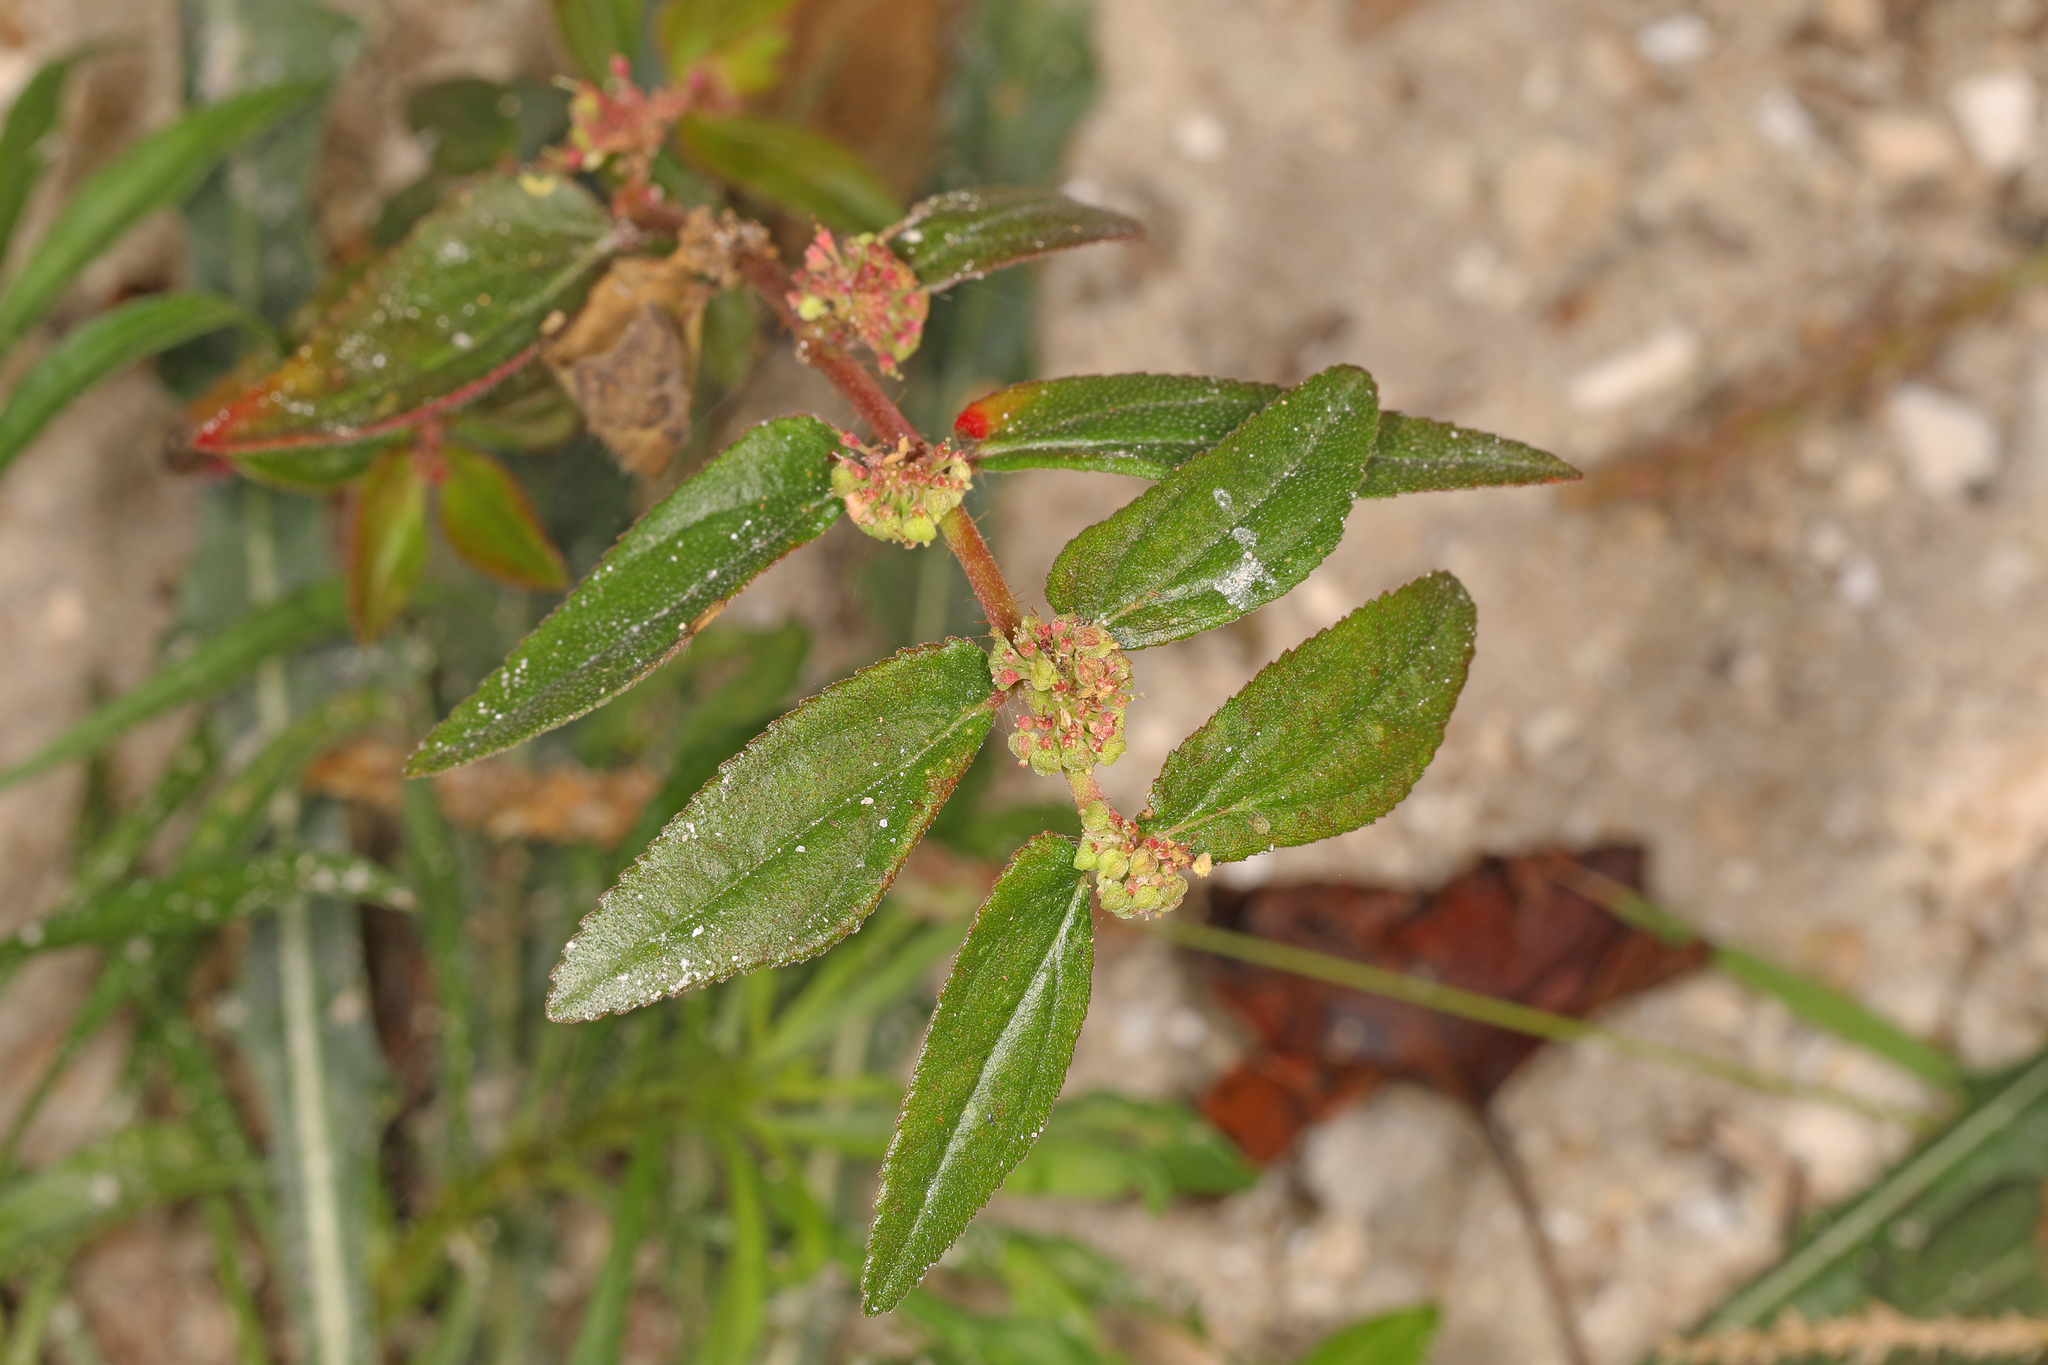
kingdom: Plantae
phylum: Tracheophyta
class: Magnoliopsida
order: Malpighiales
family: Euphorbiaceae
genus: Euphorbia
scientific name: Euphorbia hirta
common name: Pillpod sandmat
